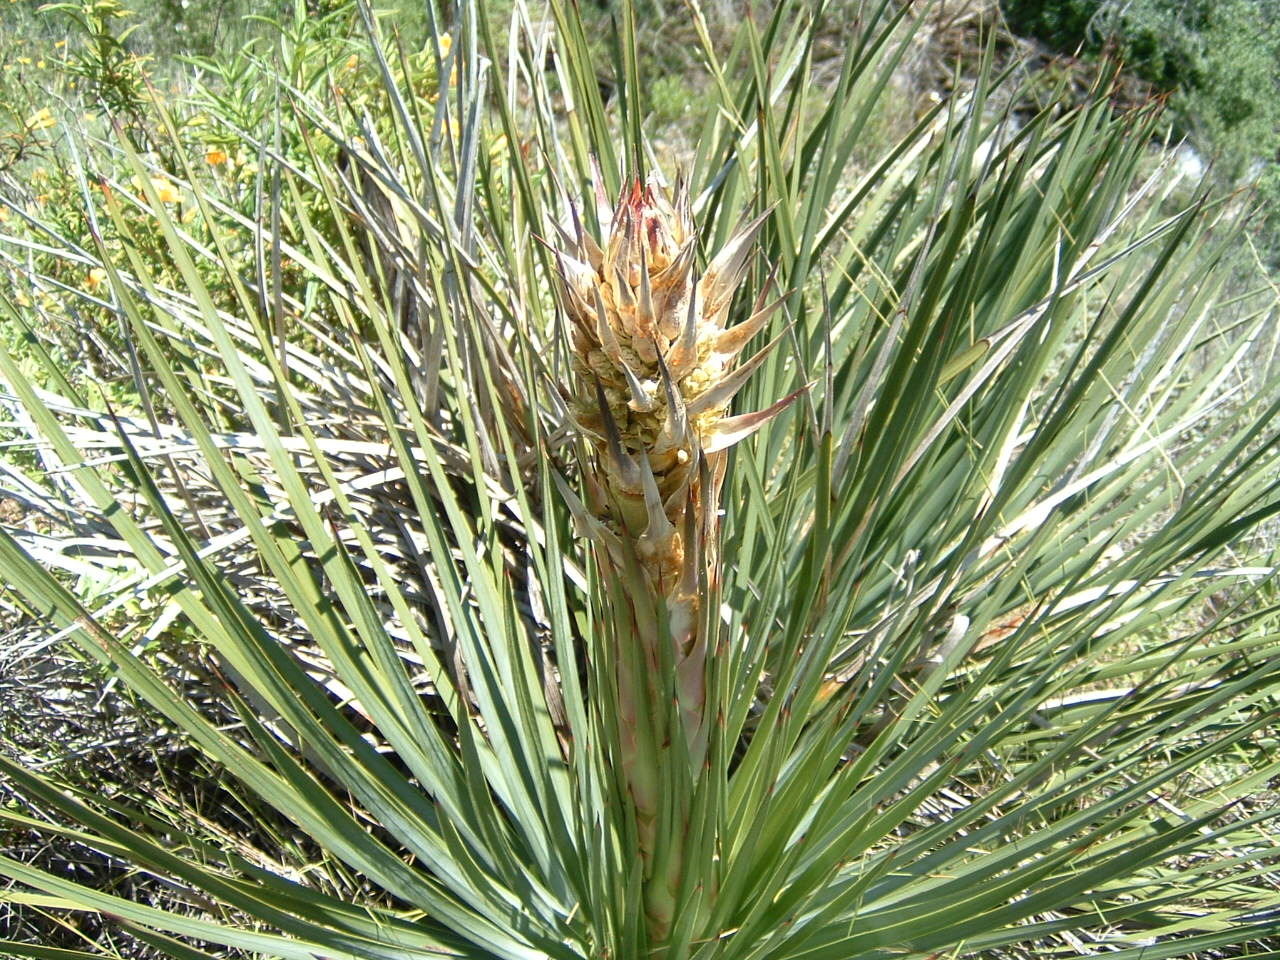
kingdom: Plantae
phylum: Tracheophyta
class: Liliopsida
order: Asparagales
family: Asparagaceae
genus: Hesperoyucca
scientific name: Hesperoyucca whipplei
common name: Our lord's-candle
